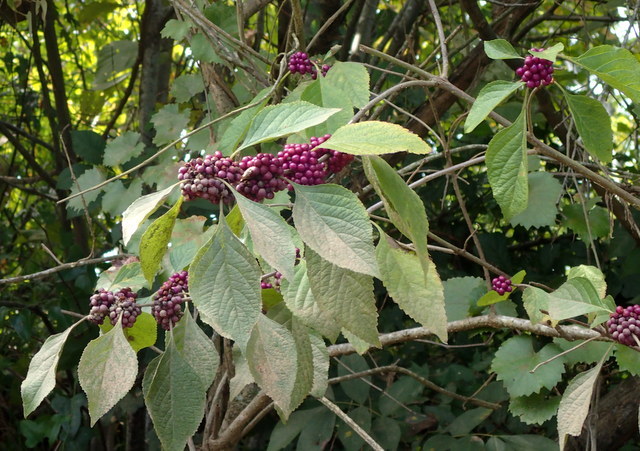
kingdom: Plantae
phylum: Tracheophyta
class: Magnoliopsida
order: Lamiales
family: Lamiaceae
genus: Callicarpa
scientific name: Callicarpa americana
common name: American beautyberry
